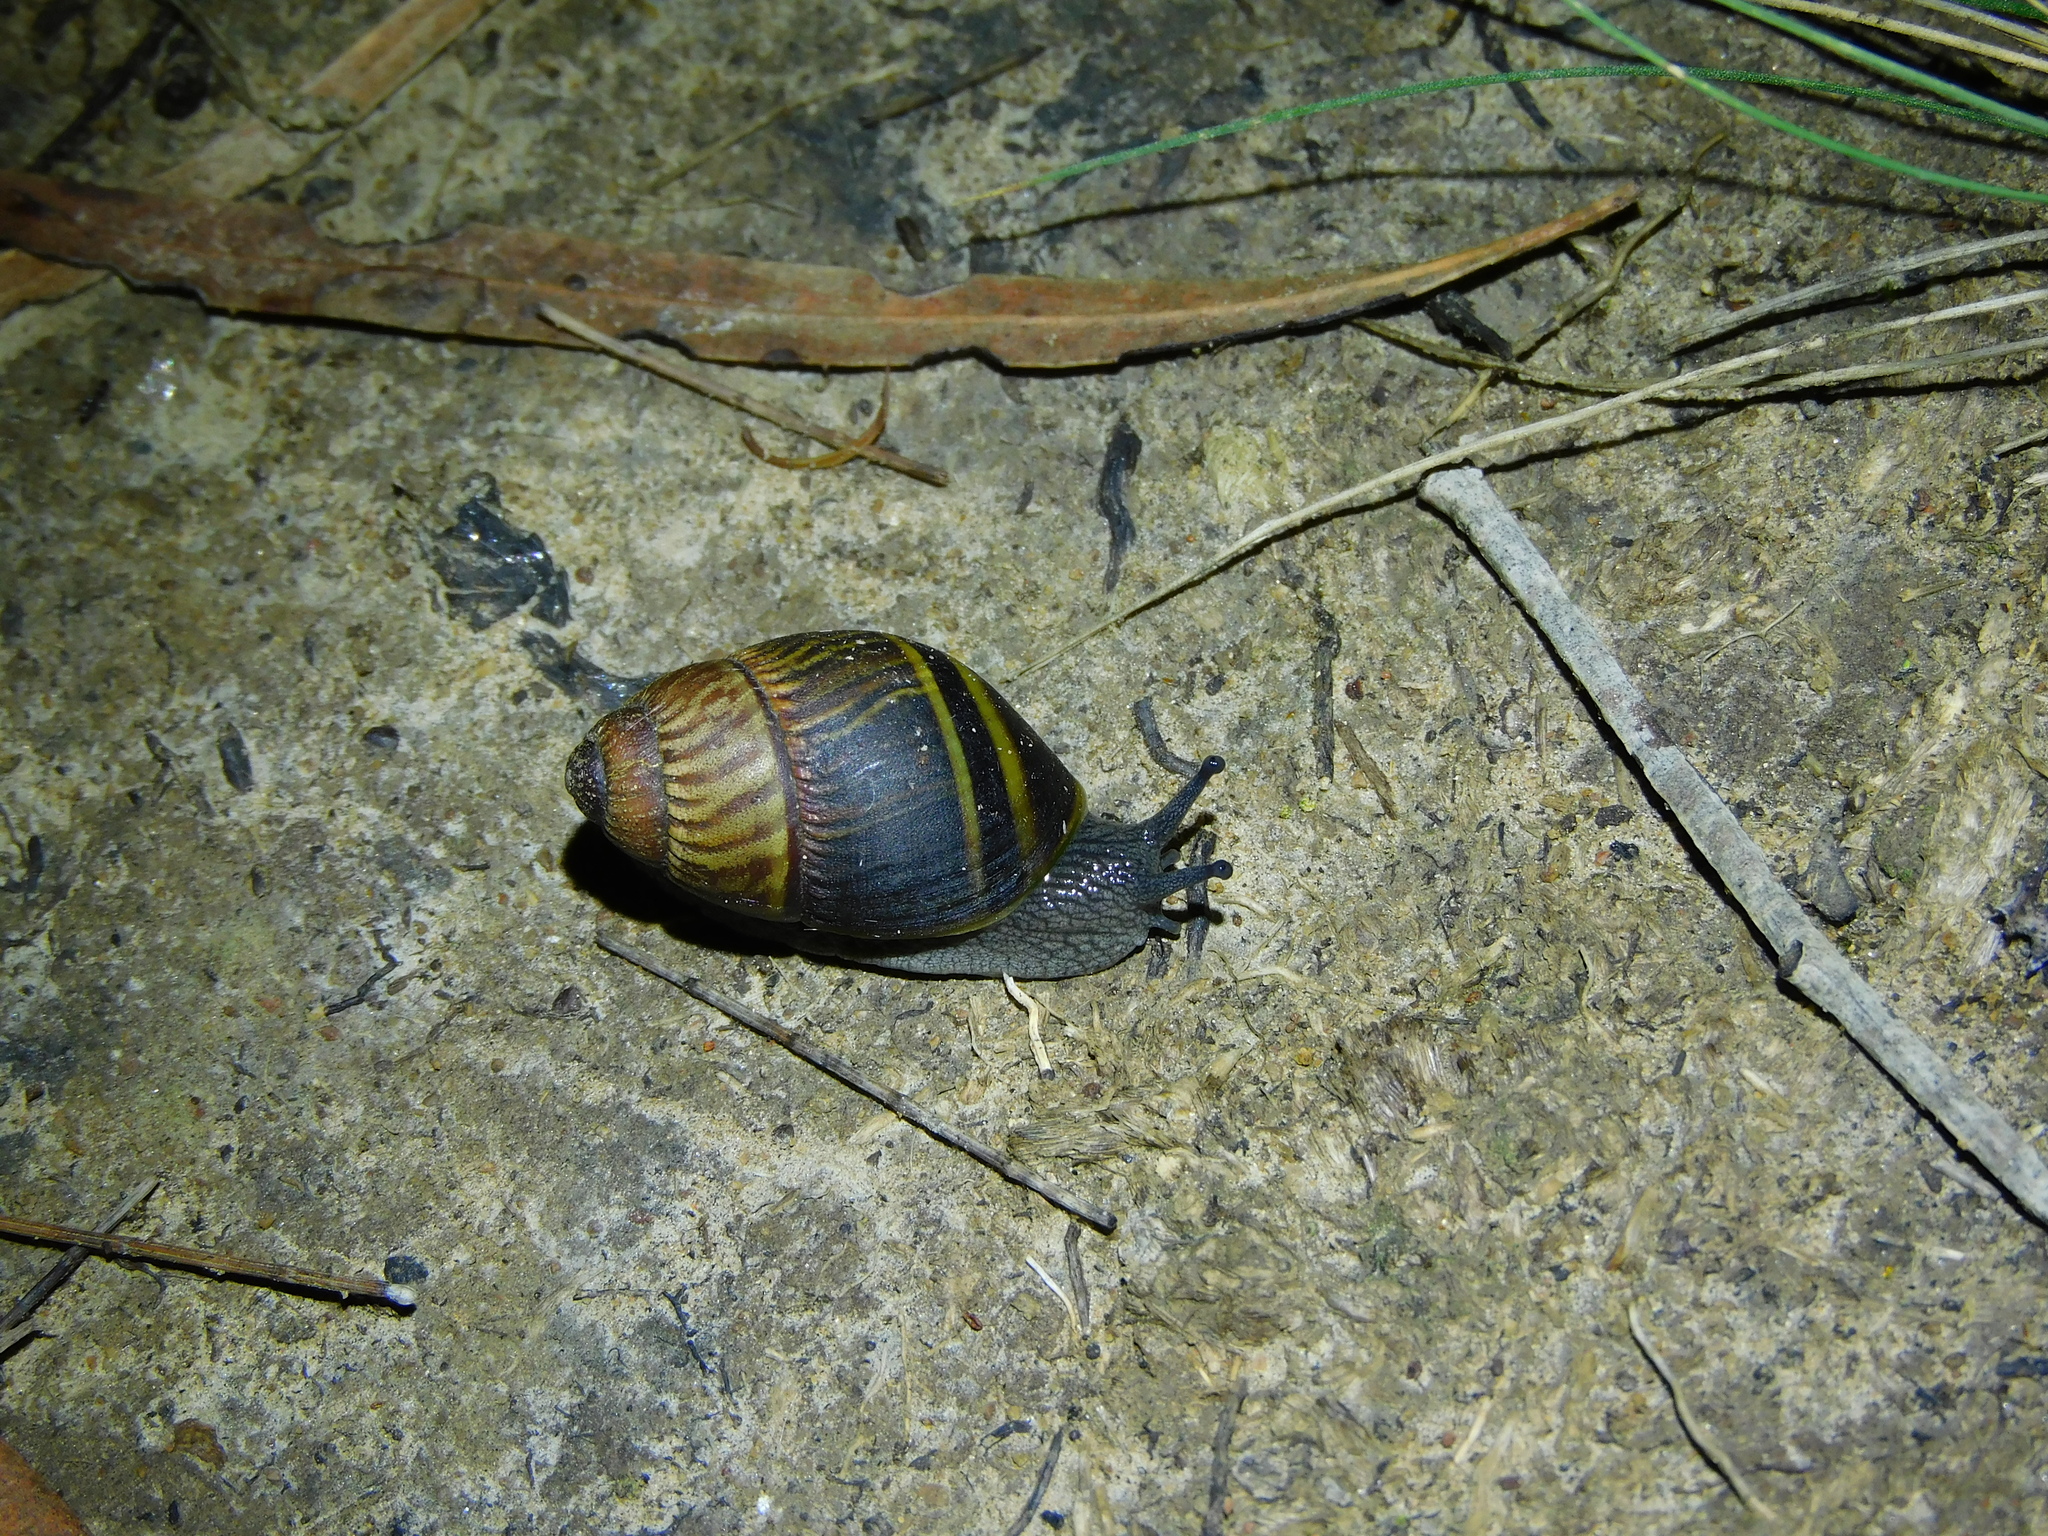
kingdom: Animalia
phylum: Mollusca
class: Gastropoda
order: Stylommatophora
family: Caryodidae
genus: Caryodes
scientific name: Caryodes dufresnii
